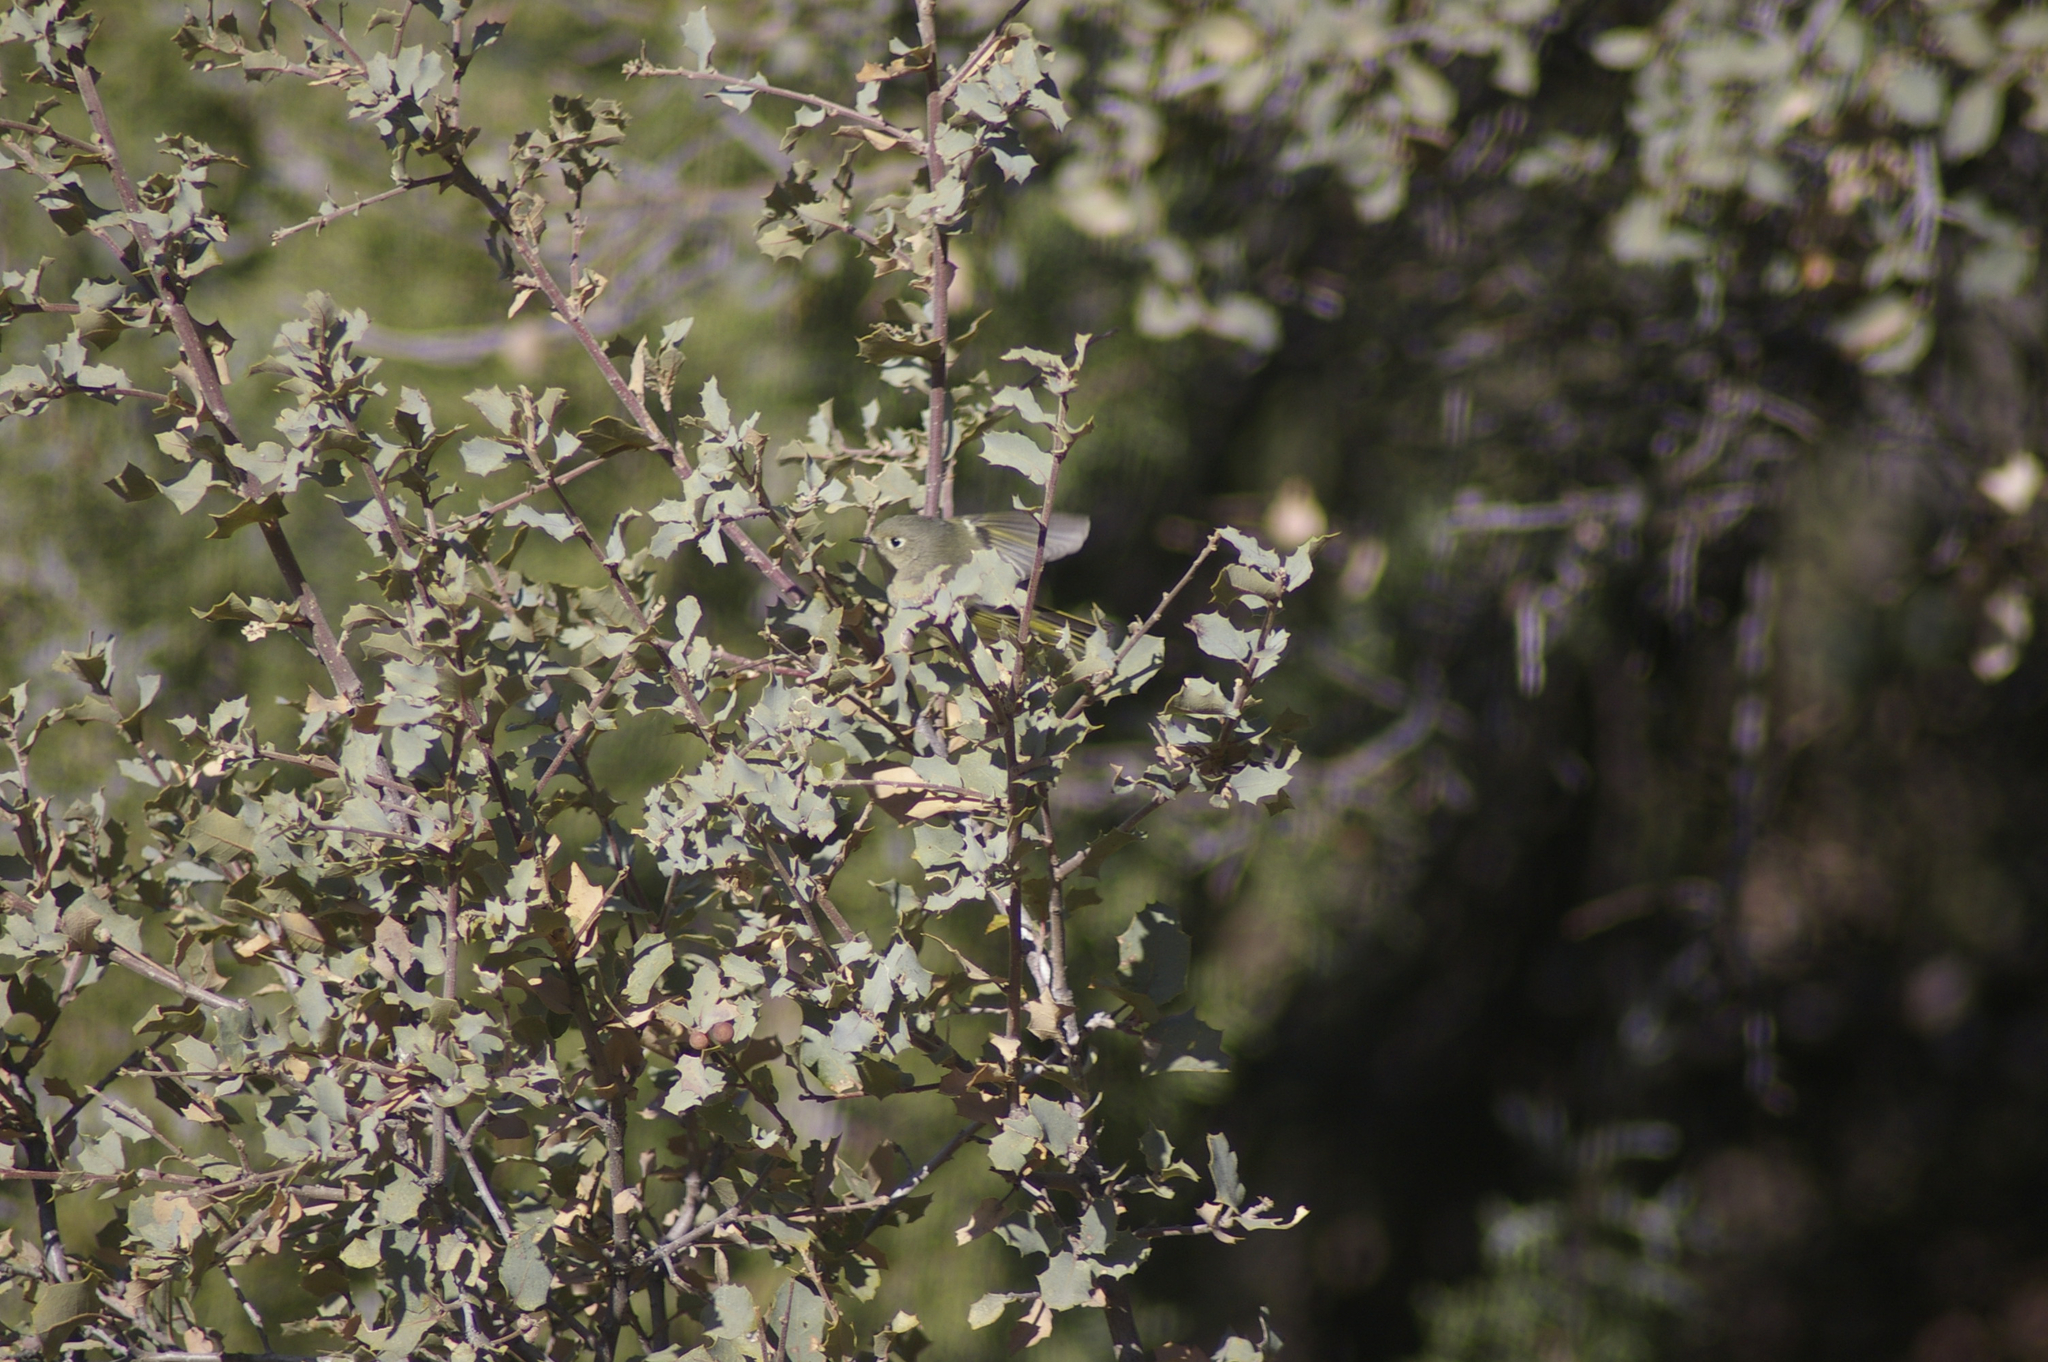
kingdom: Animalia
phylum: Chordata
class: Aves
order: Passeriformes
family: Regulidae
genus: Regulus
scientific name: Regulus calendula
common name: Ruby-crowned kinglet
